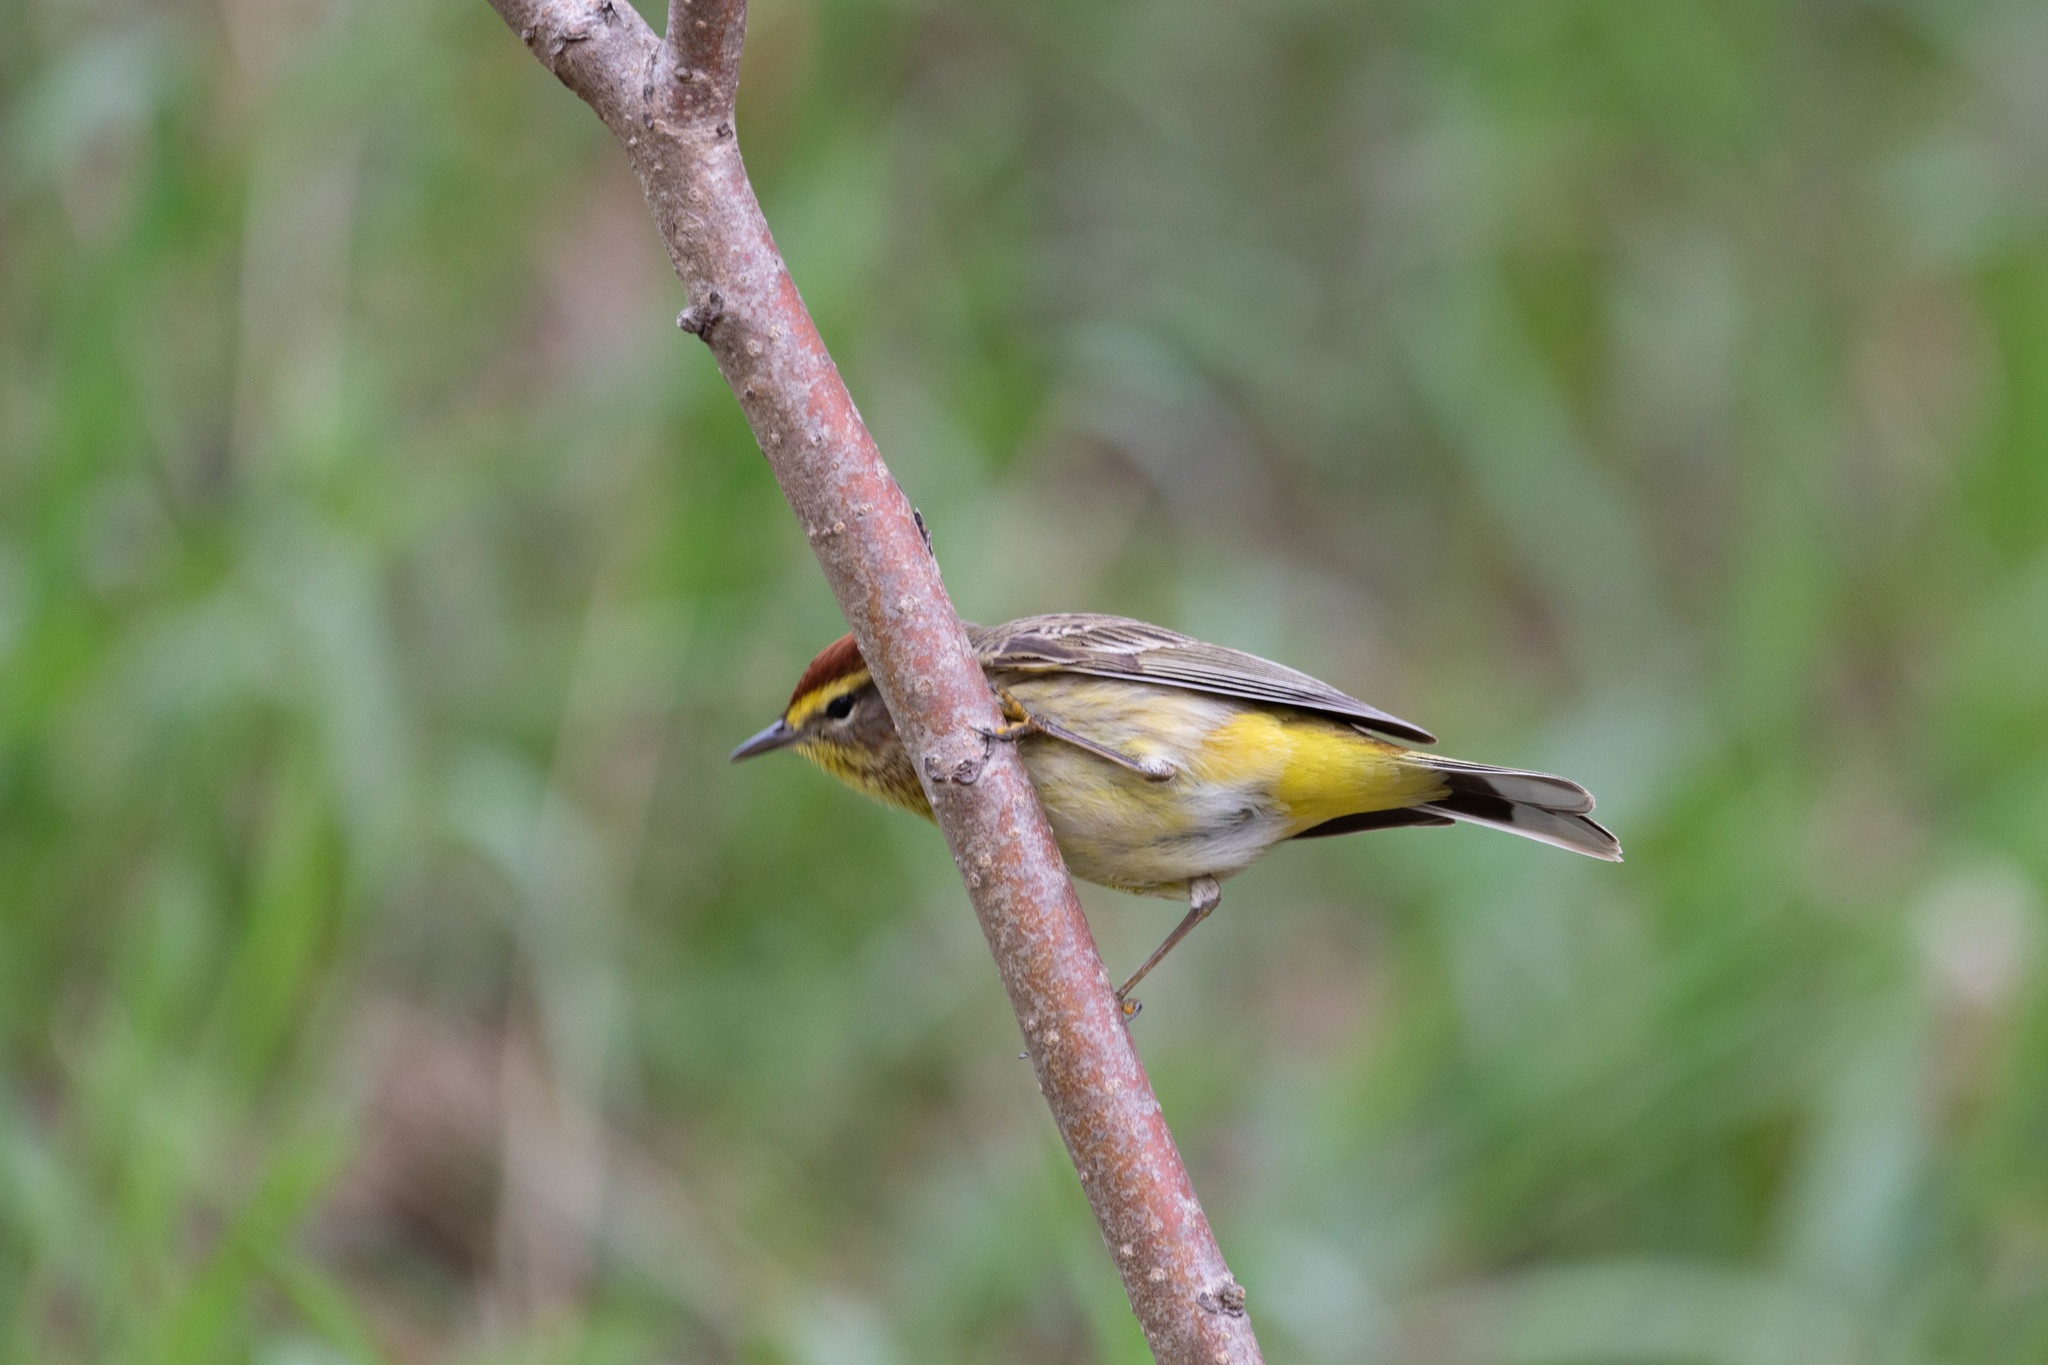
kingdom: Animalia
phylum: Chordata
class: Aves
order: Passeriformes
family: Parulidae
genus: Setophaga
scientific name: Setophaga palmarum
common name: Palm warbler
